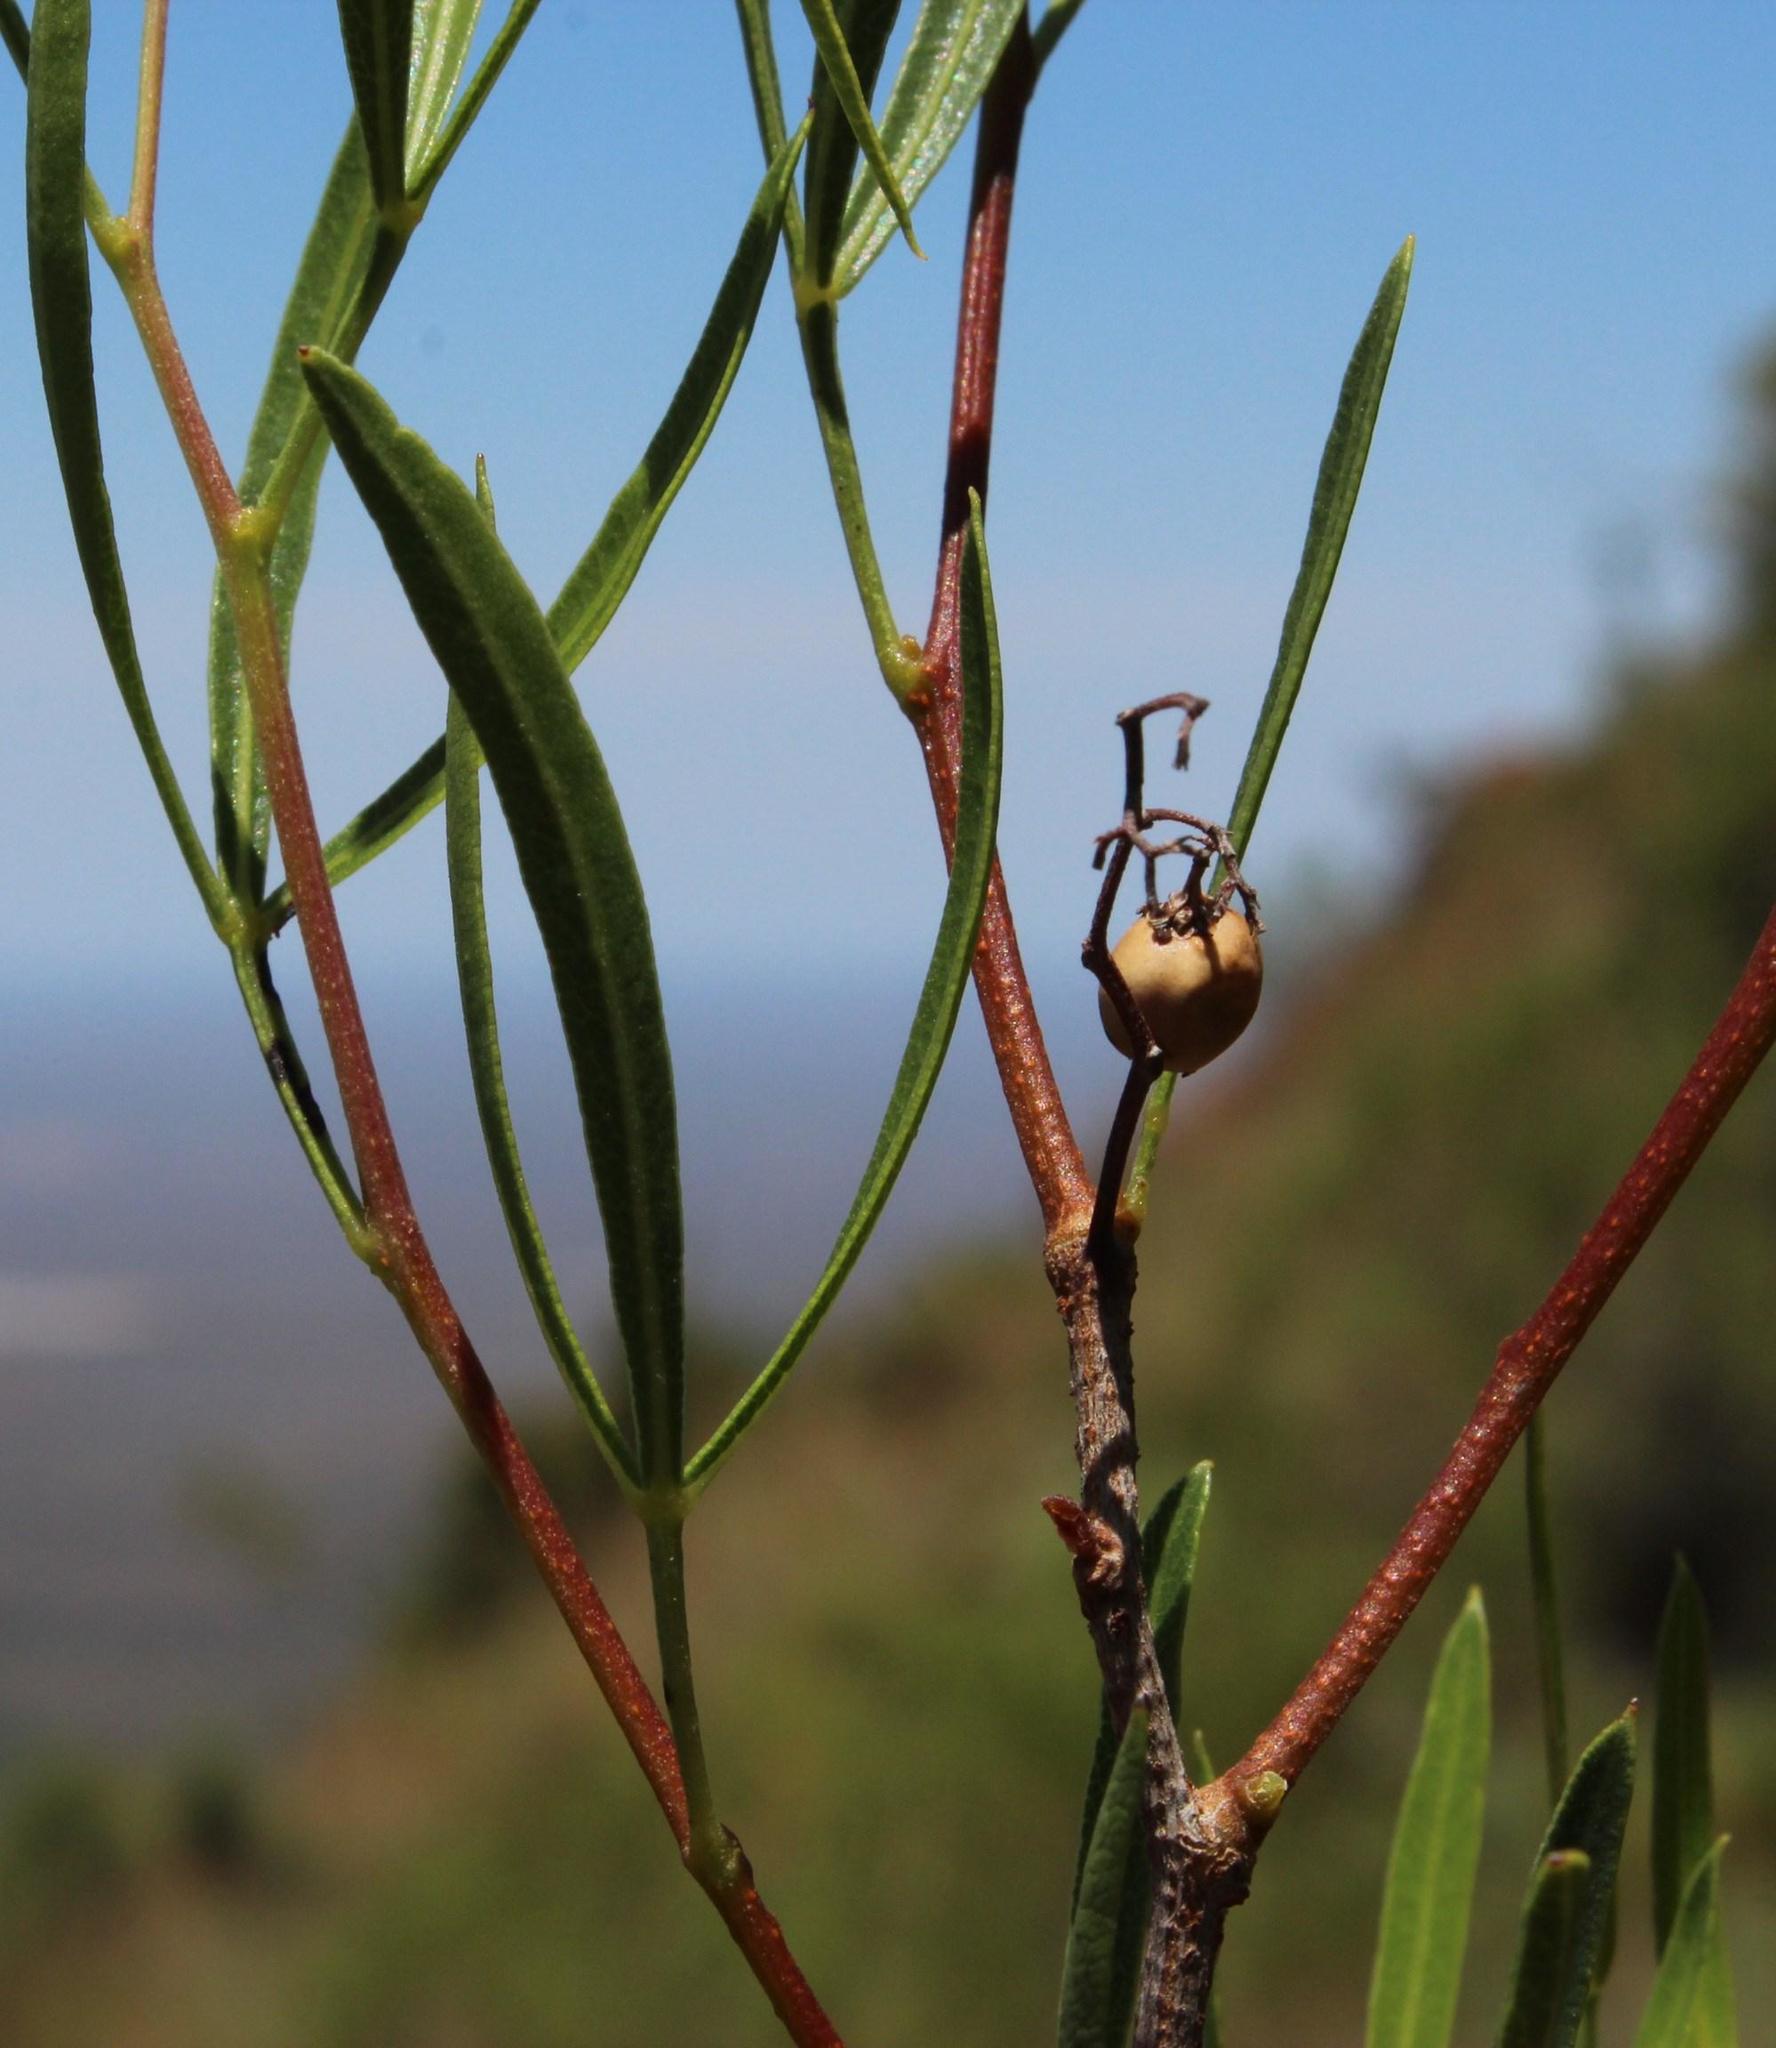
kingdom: Plantae
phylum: Tracheophyta
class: Magnoliopsida
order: Sapindales
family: Anacardiaceae
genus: Searsia
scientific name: Searsia dregeana
